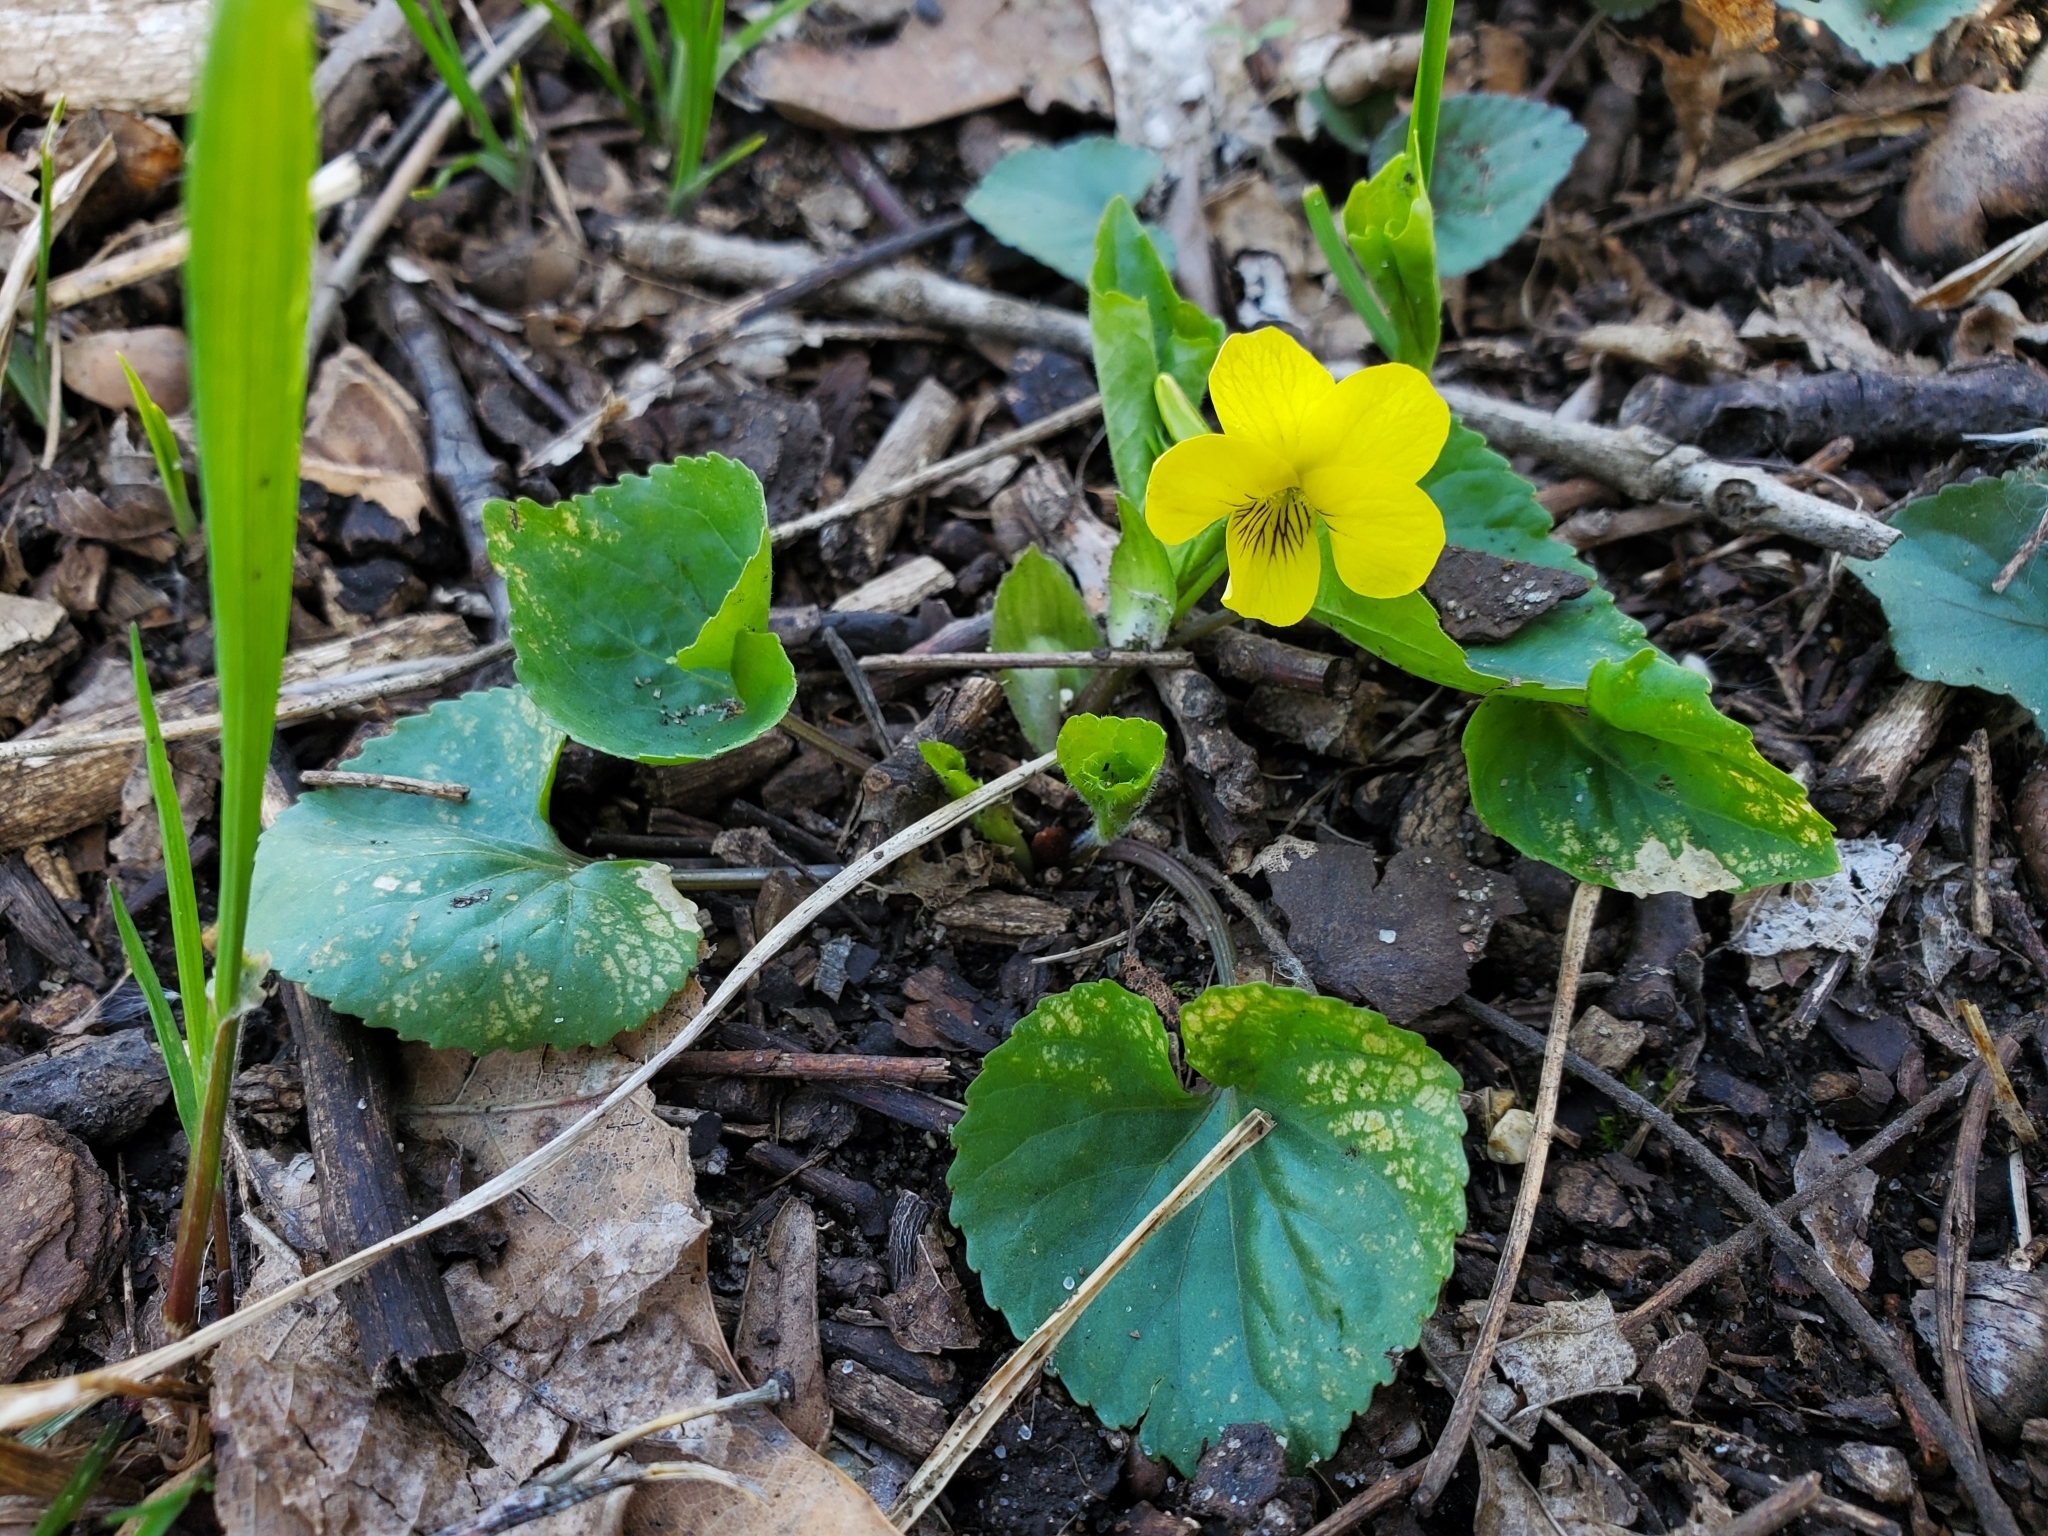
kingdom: Plantae
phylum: Tracheophyta
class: Magnoliopsida
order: Malpighiales
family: Violaceae
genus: Viola
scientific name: Viola eriocarpa
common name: Smooth yellow violet
